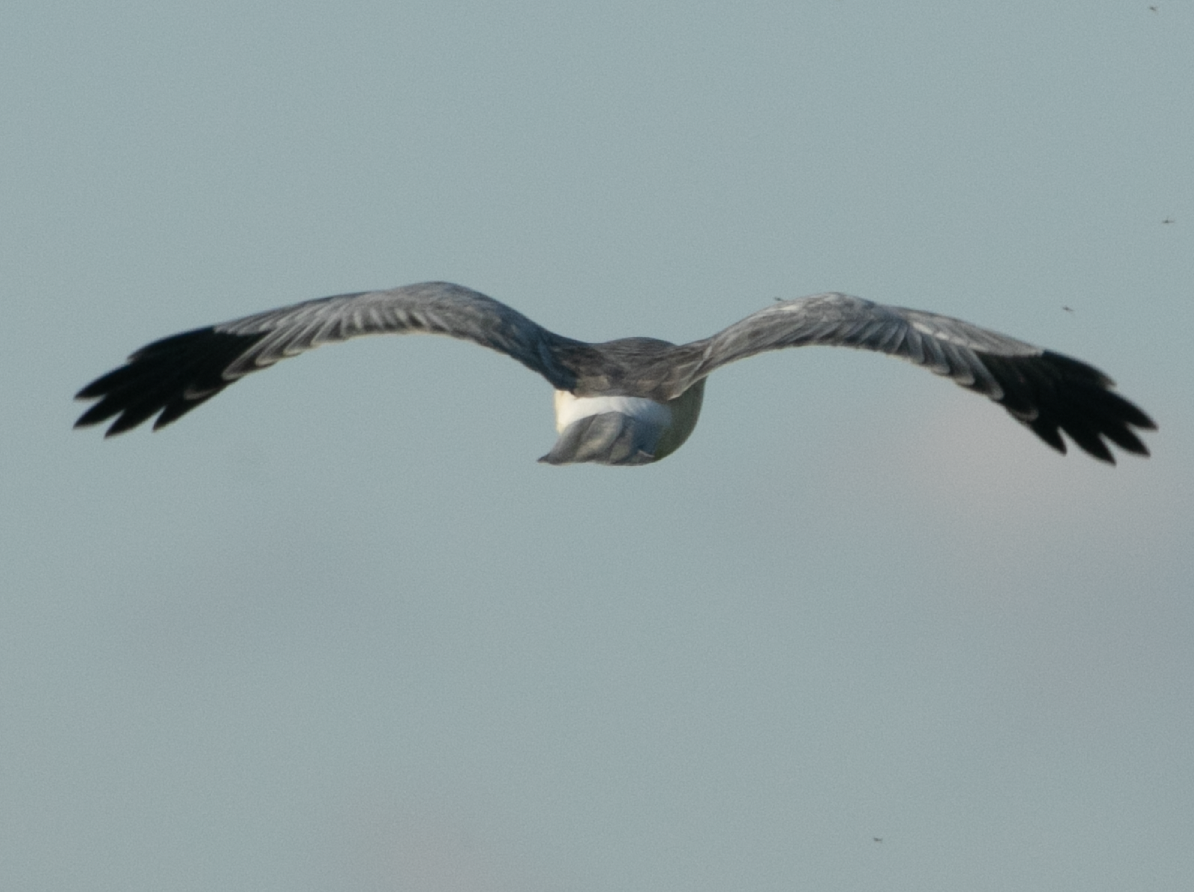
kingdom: Animalia
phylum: Chordata
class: Aves
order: Accipitriformes
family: Accipitridae
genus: Circus
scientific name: Circus cyaneus
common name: Hen harrier
